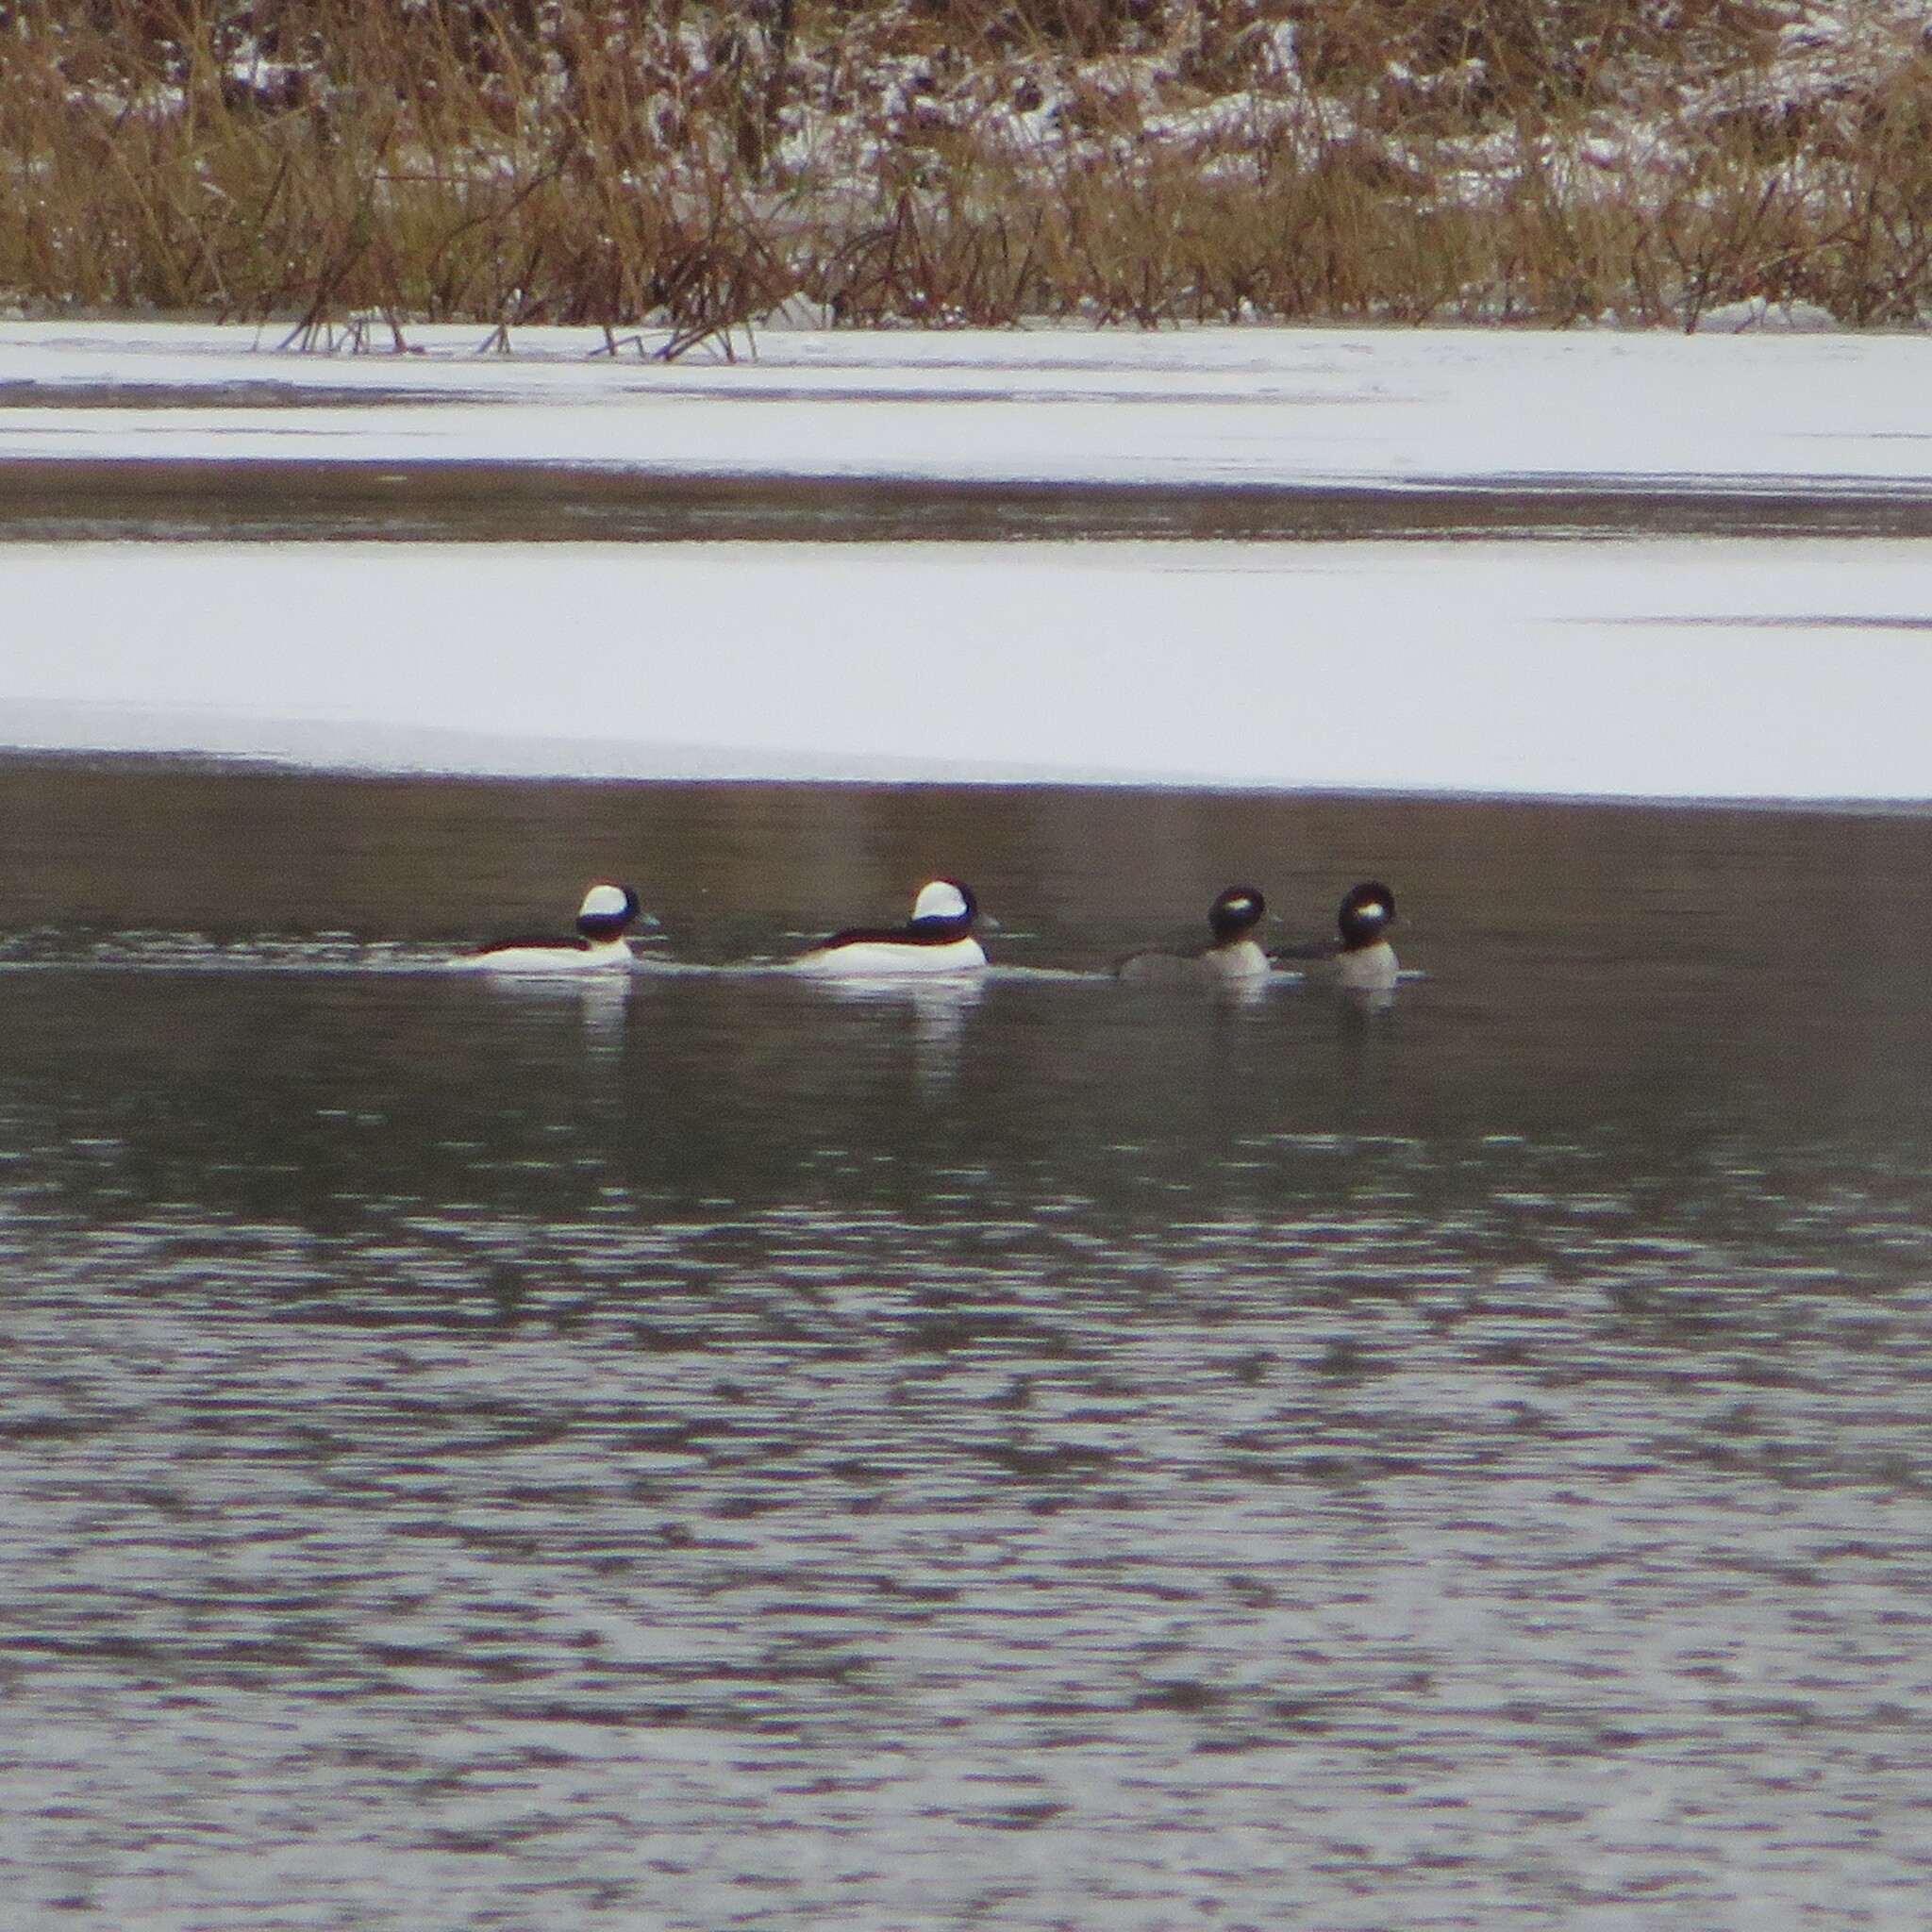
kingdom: Animalia
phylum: Chordata
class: Aves
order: Anseriformes
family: Anatidae
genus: Bucephala
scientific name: Bucephala albeola
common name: Bufflehead
